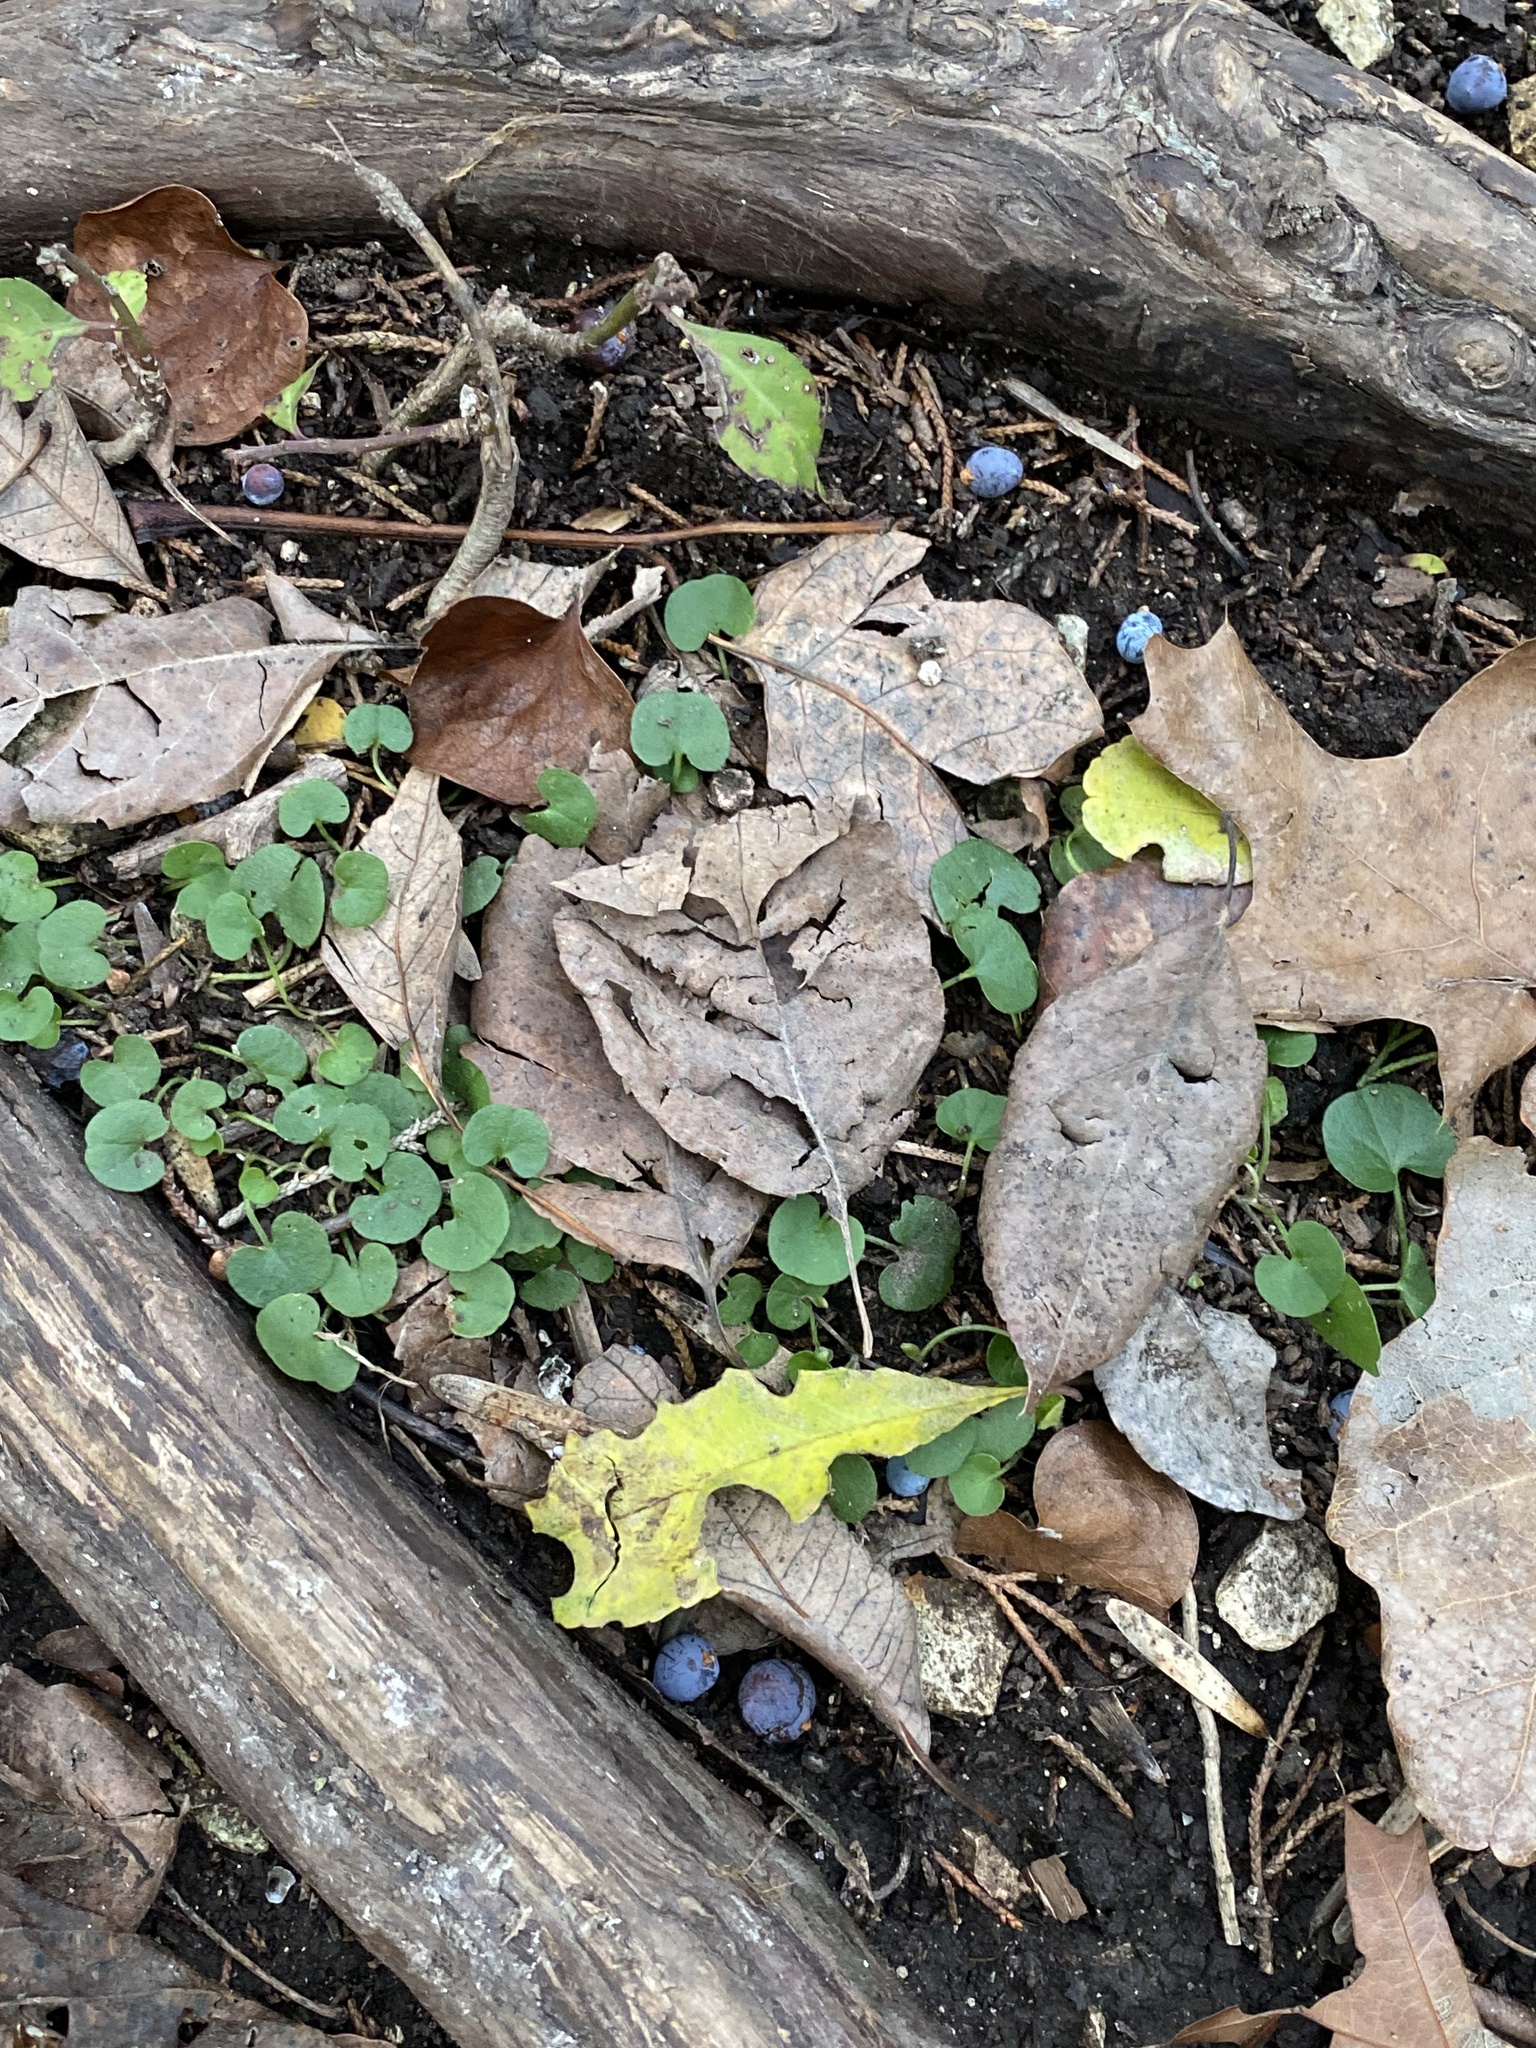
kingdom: Plantae
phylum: Tracheophyta
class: Magnoliopsida
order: Solanales
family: Convolvulaceae
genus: Dichondra
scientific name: Dichondra carolinensis
